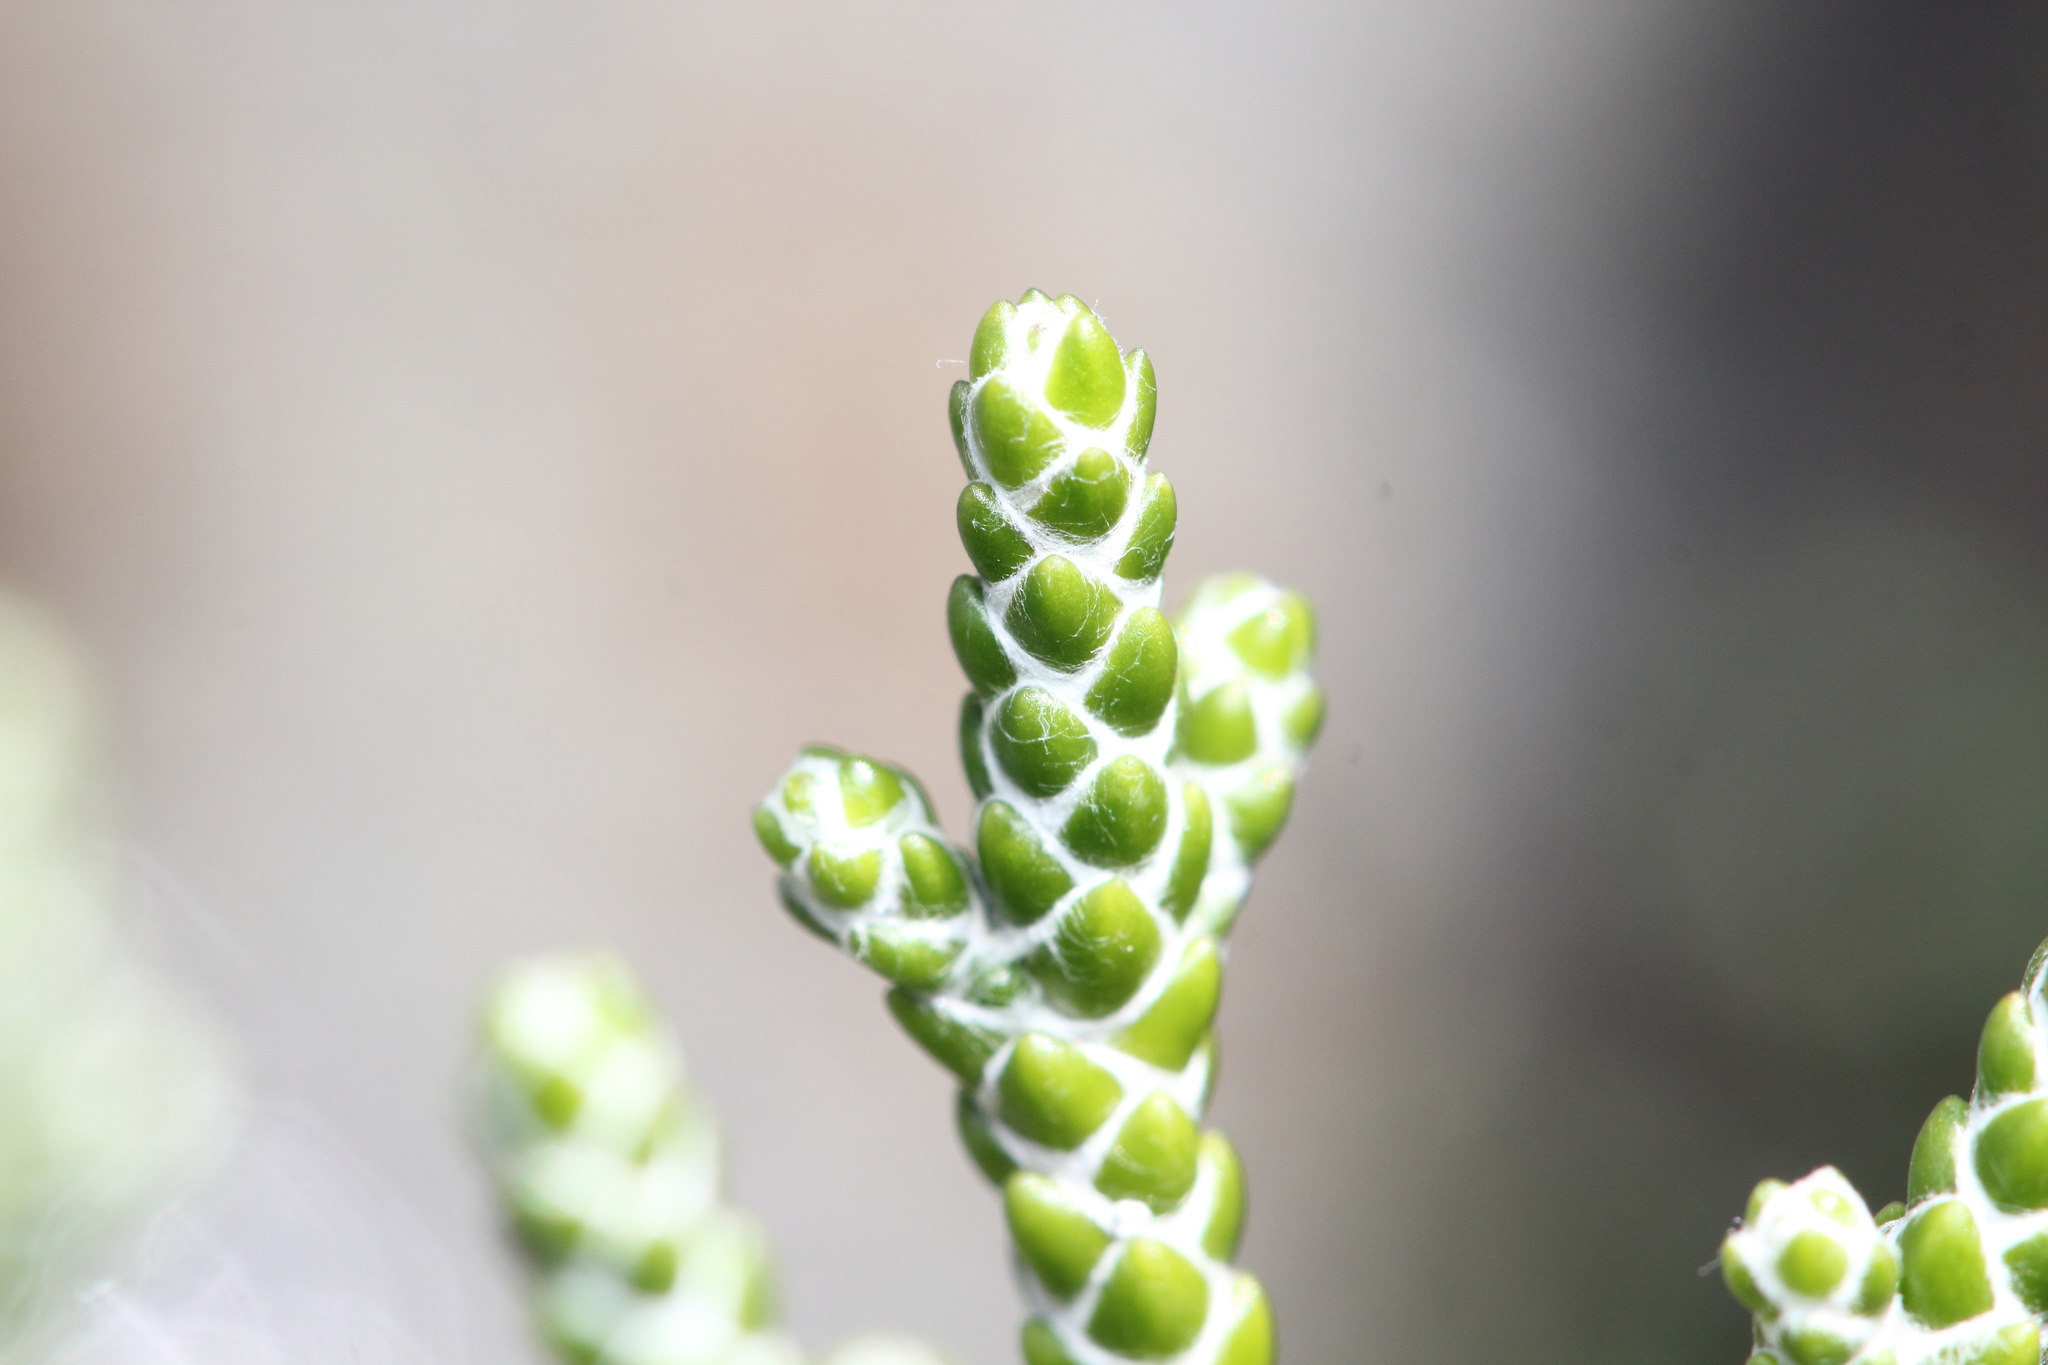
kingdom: Plantae
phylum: Tracheophyta
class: Magnoliopsida
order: Asterales
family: Asteraceae
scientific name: Asteraceae
